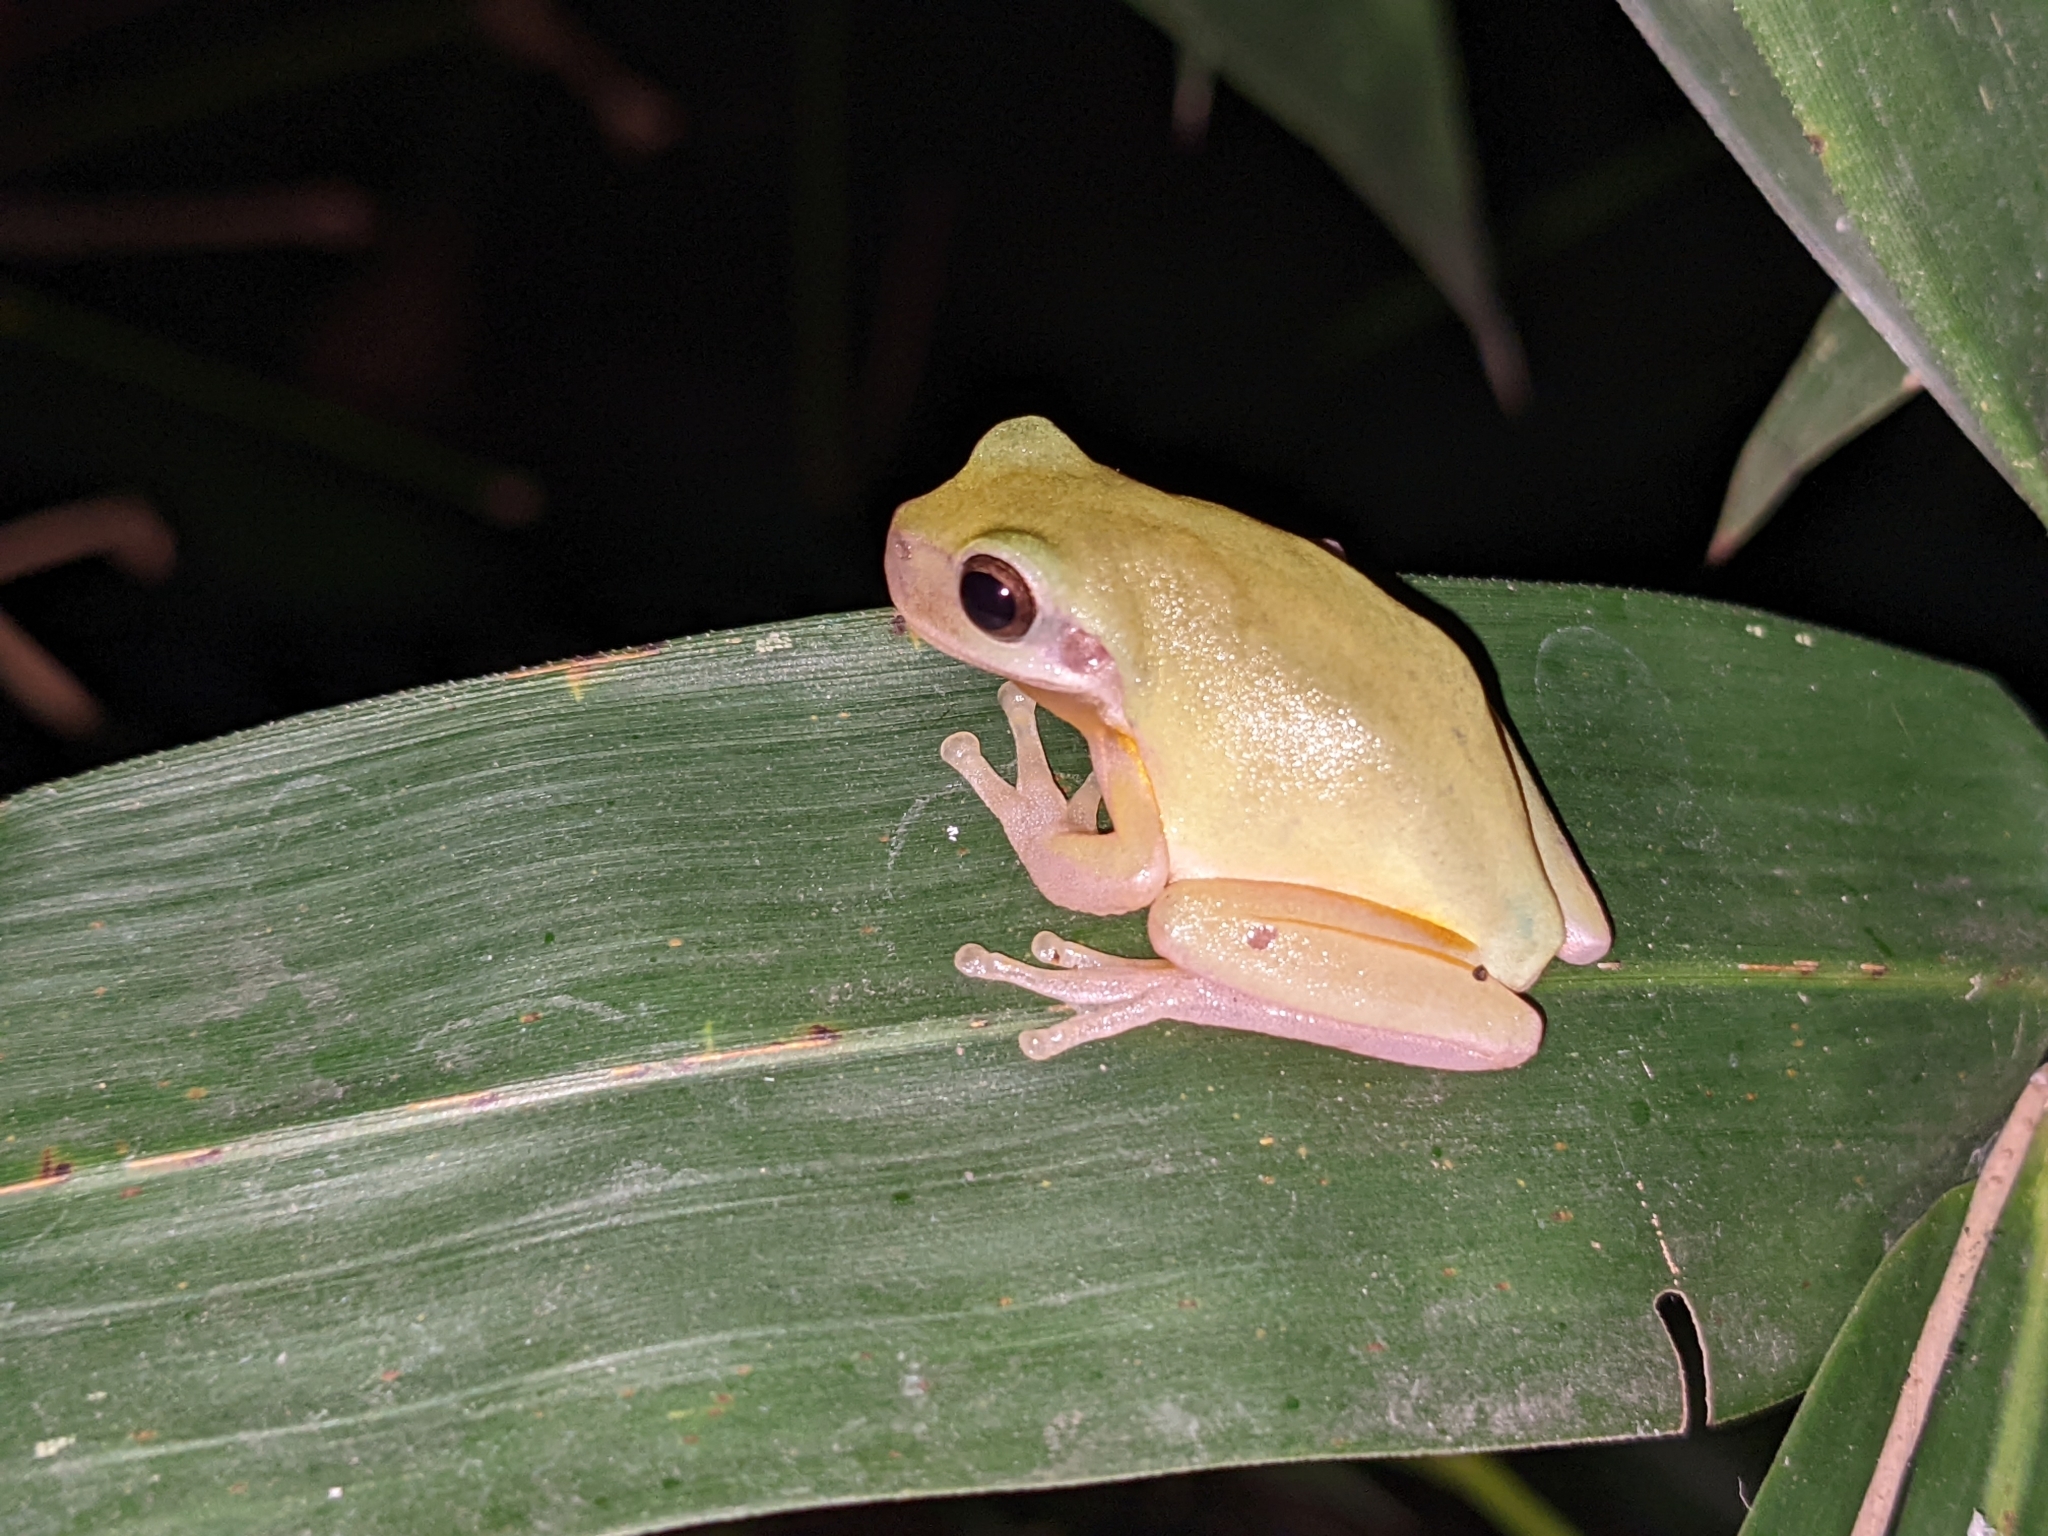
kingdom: Animalia
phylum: Chordata
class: Amphibia
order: Anura
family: Hylidae
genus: Hyla
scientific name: Hyla chinensis
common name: Common chinese treefrog
